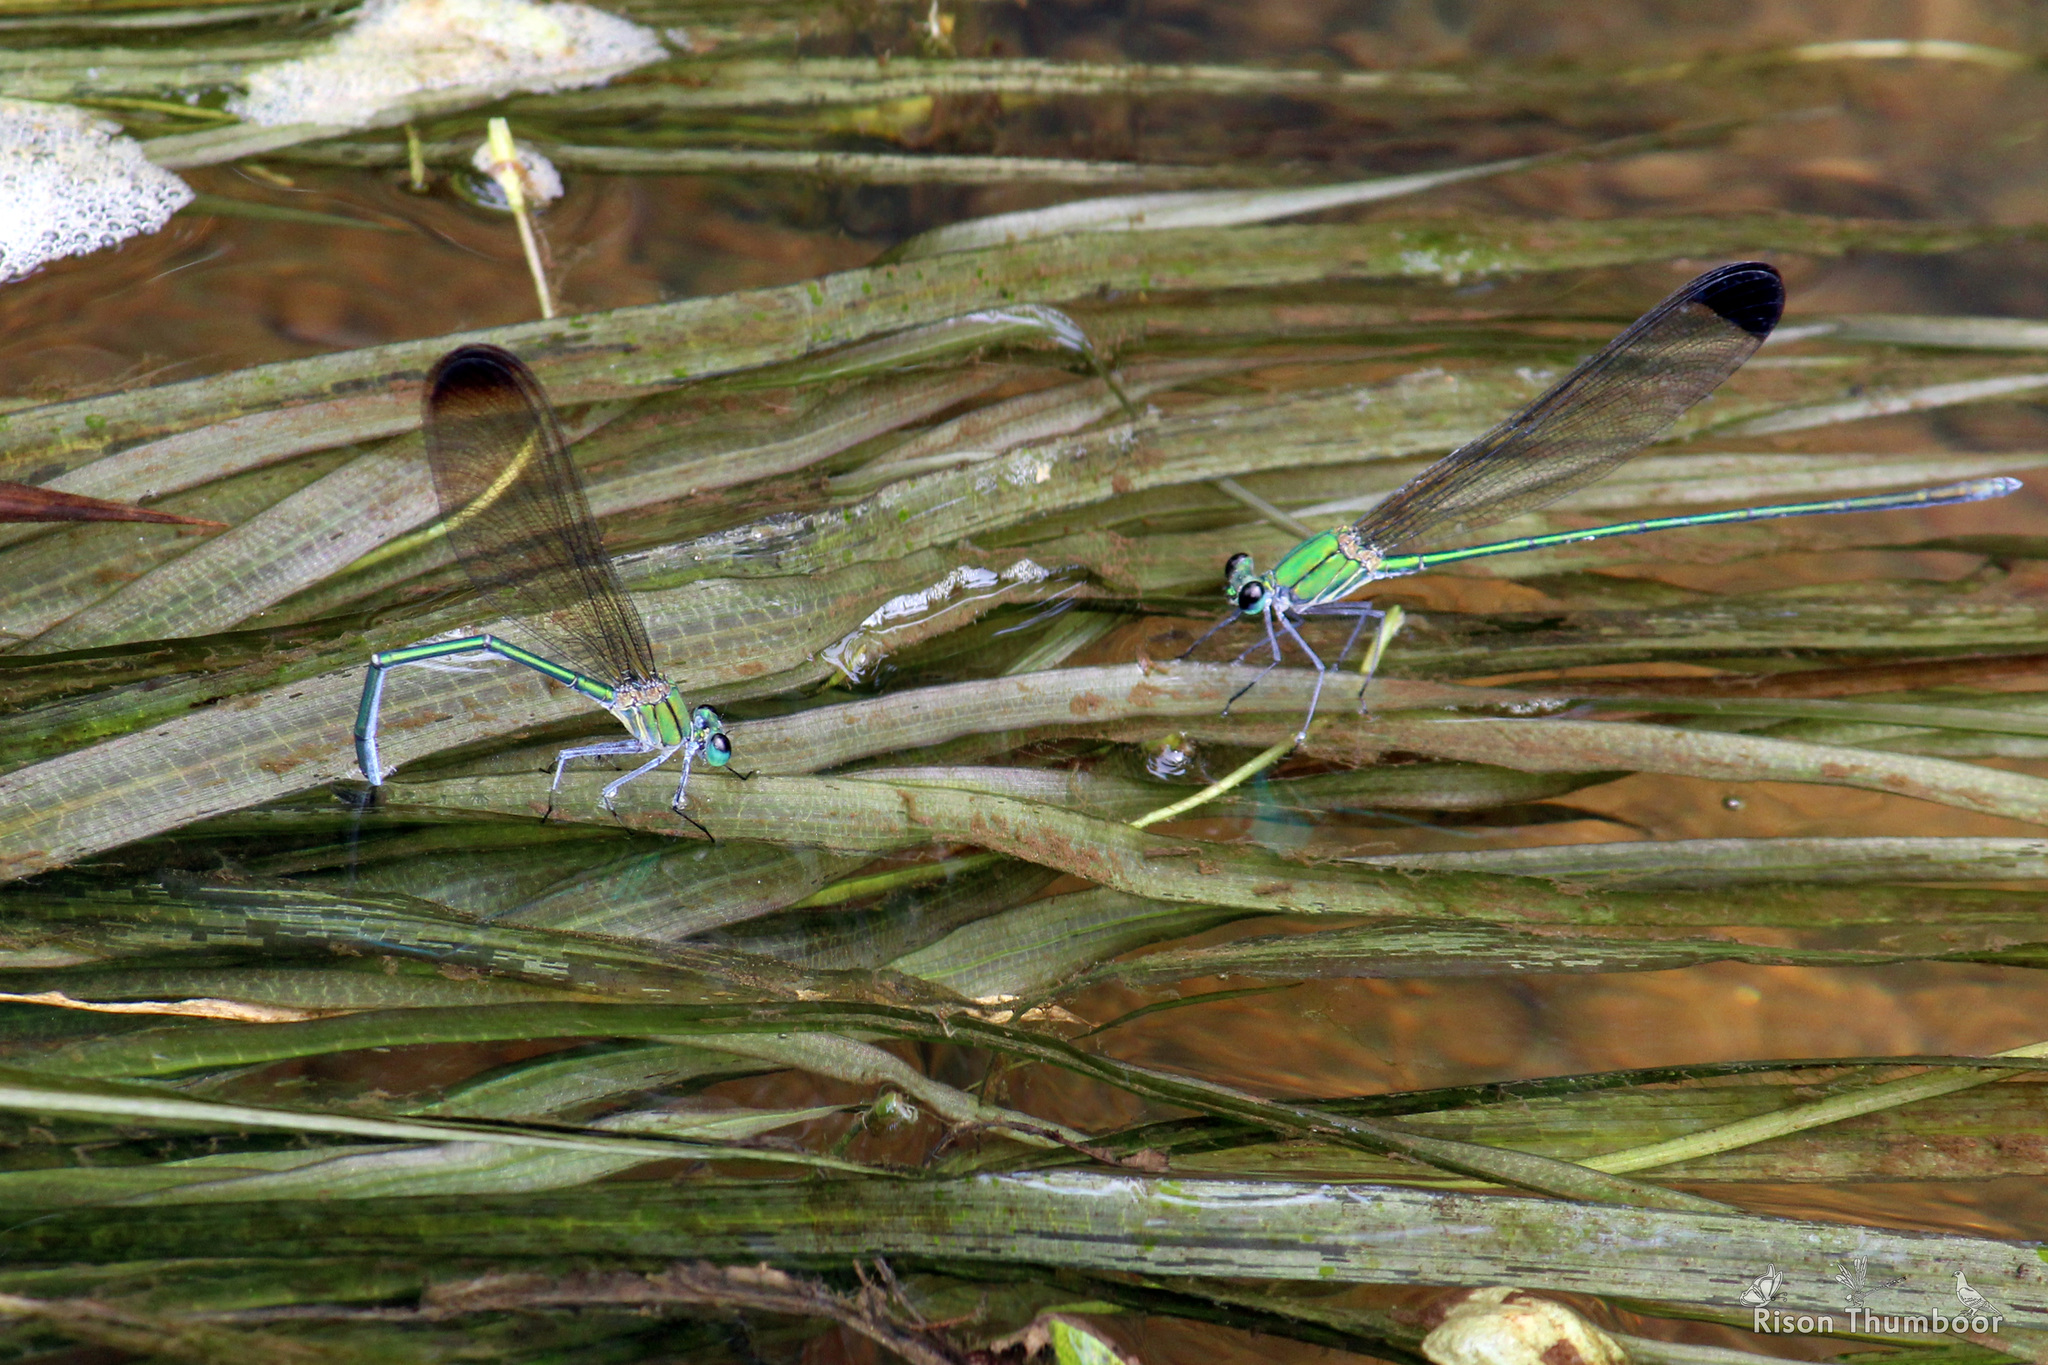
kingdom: Animalia
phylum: Arthropoda
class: Insecta
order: Odonata
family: Calopterygidae
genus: Vestalis
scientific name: Vestalis apicalis
